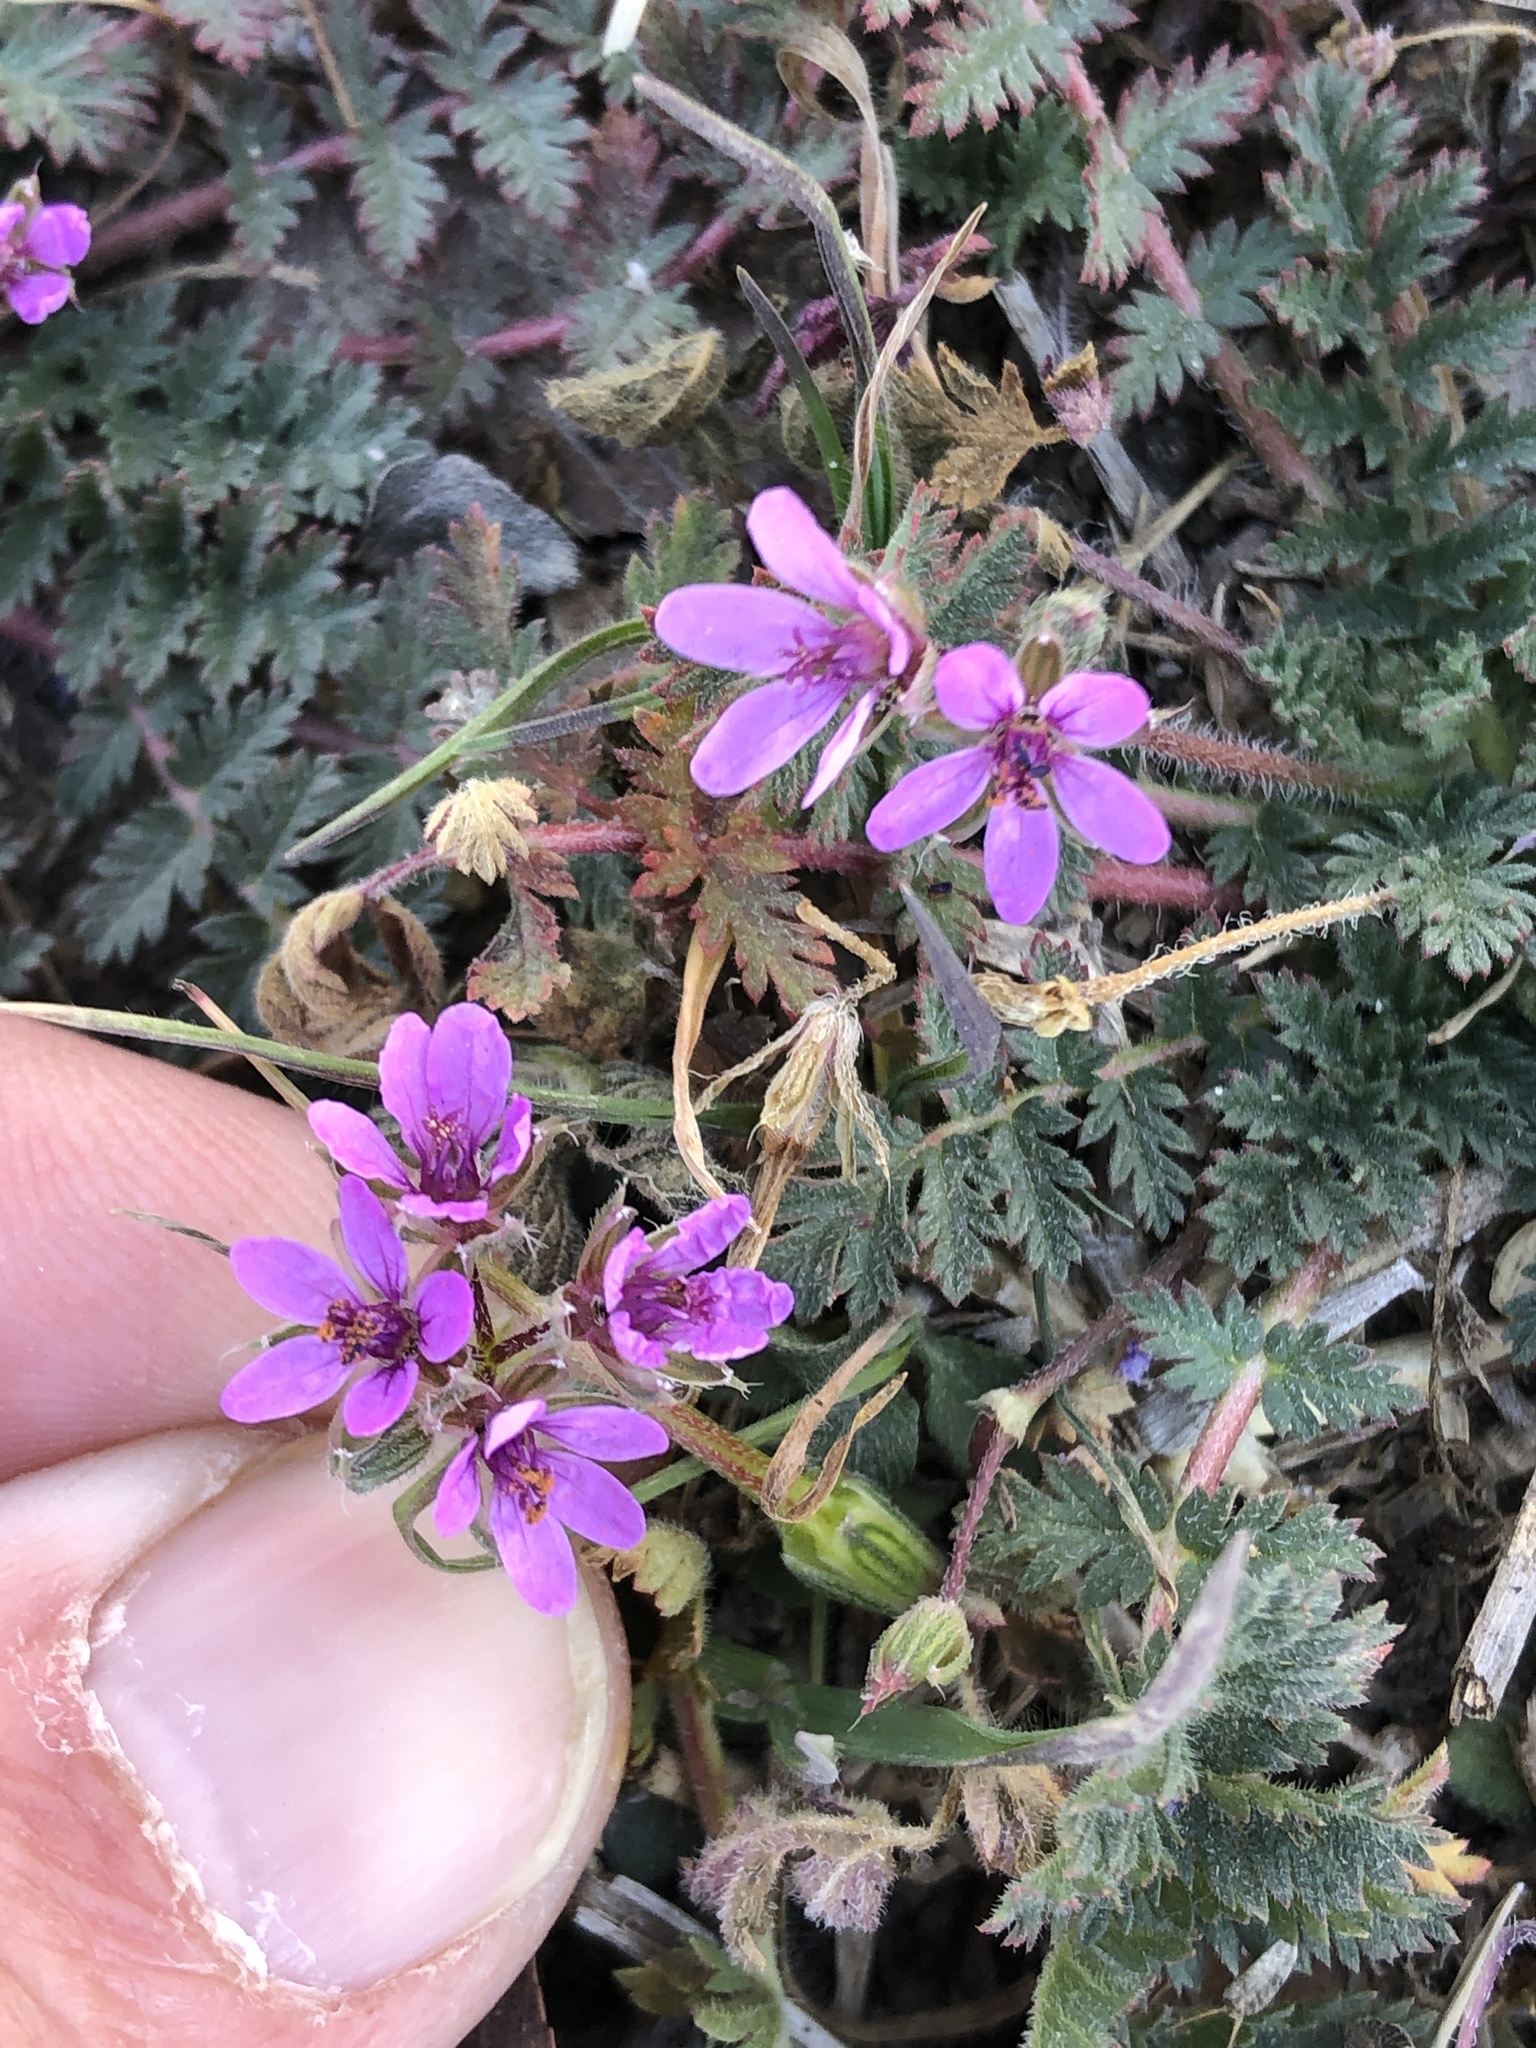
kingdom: Plantae
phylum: Tracheophyta
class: Magnoliopsida
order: Geraniales
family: Geraniaceae
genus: Erodium
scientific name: Erodium cicutarium
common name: Common stork's-bill
